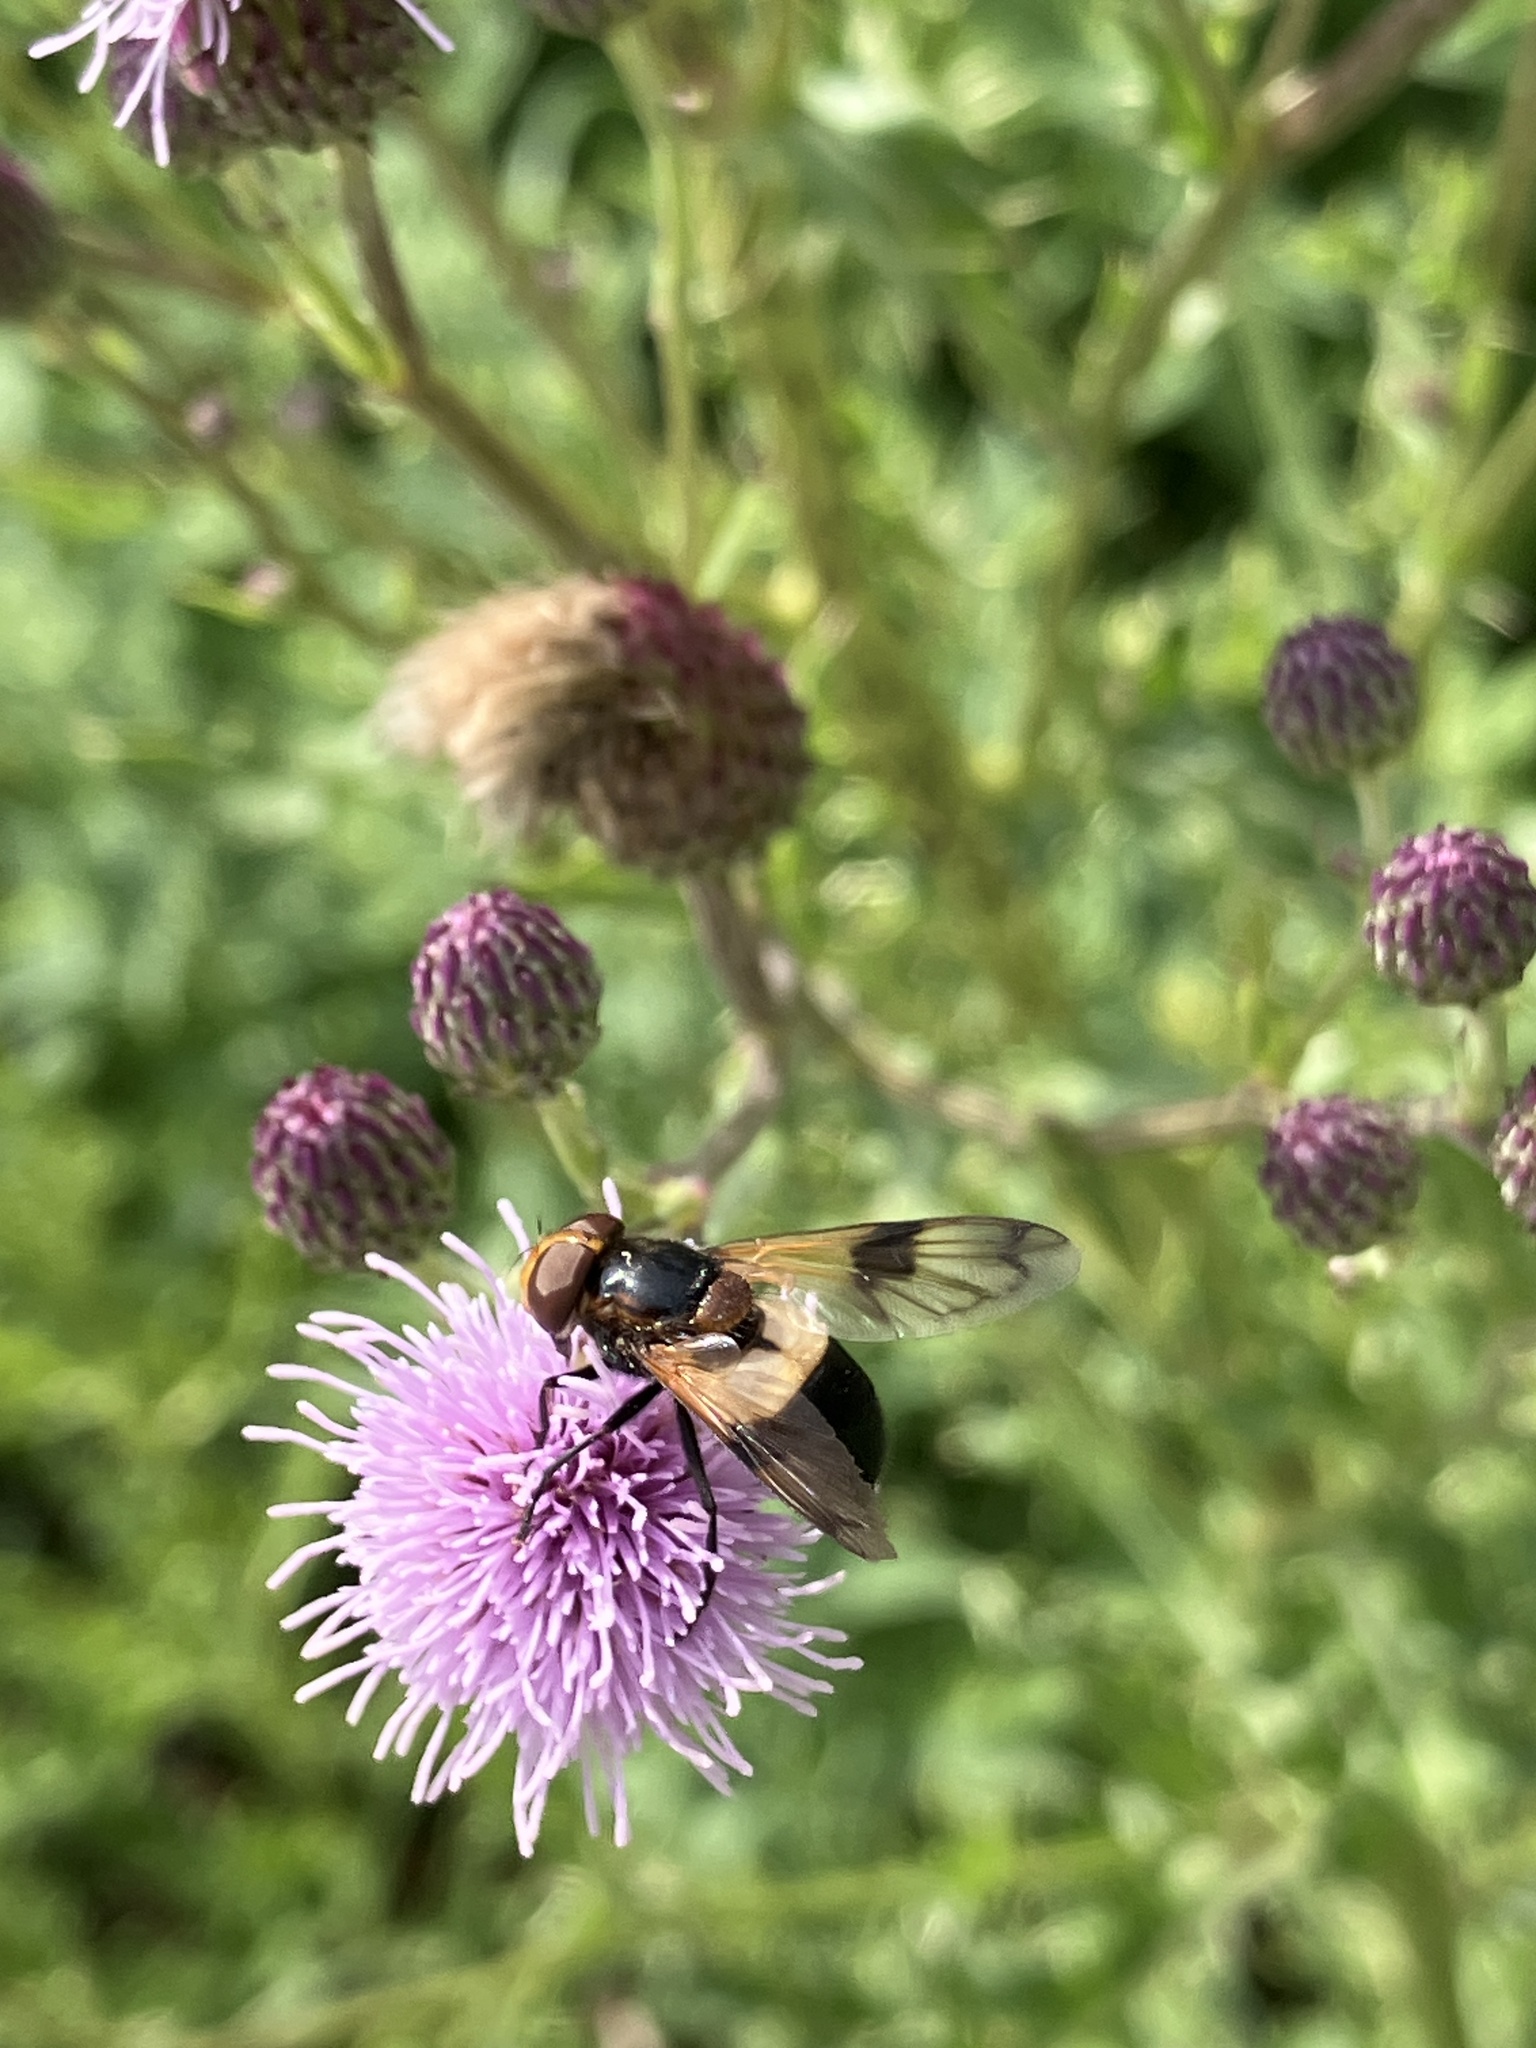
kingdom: Animalia
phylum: Arthropoda
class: Insecta
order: Diptera
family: Syrphidae
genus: Volucella
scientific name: Volucella pellucens
